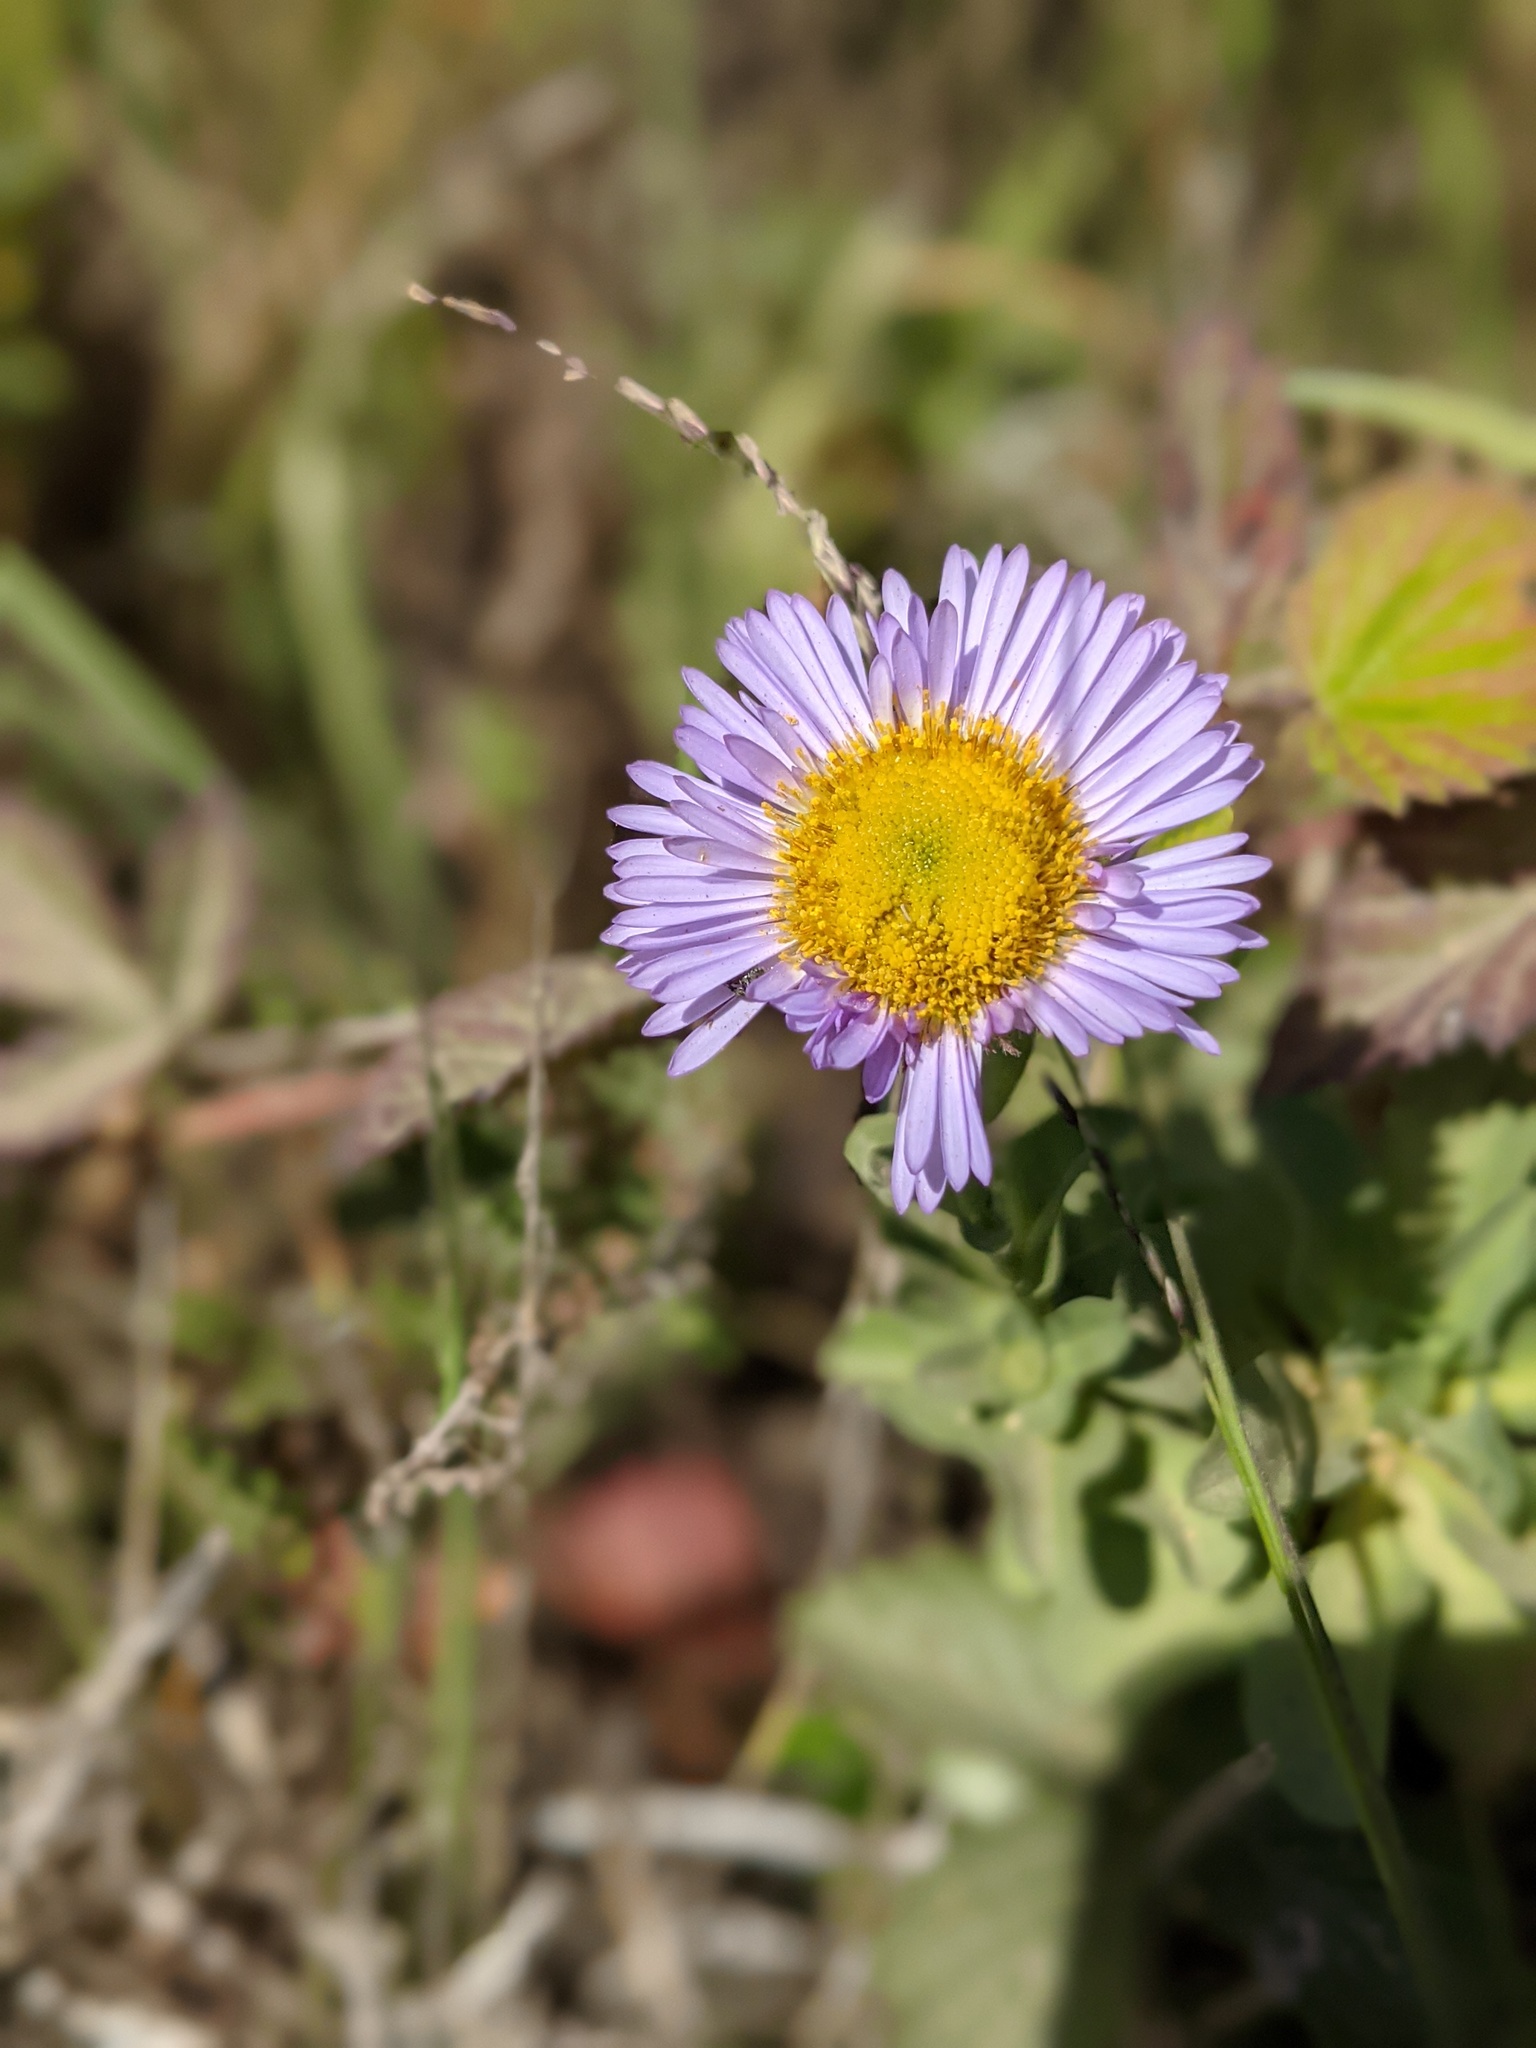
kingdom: Plantae
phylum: Tracheophyta
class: Magnoliopsida
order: Asterales
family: Asteraceae
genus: Erigeron
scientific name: Erigeron glaucus
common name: Seaside daisy
